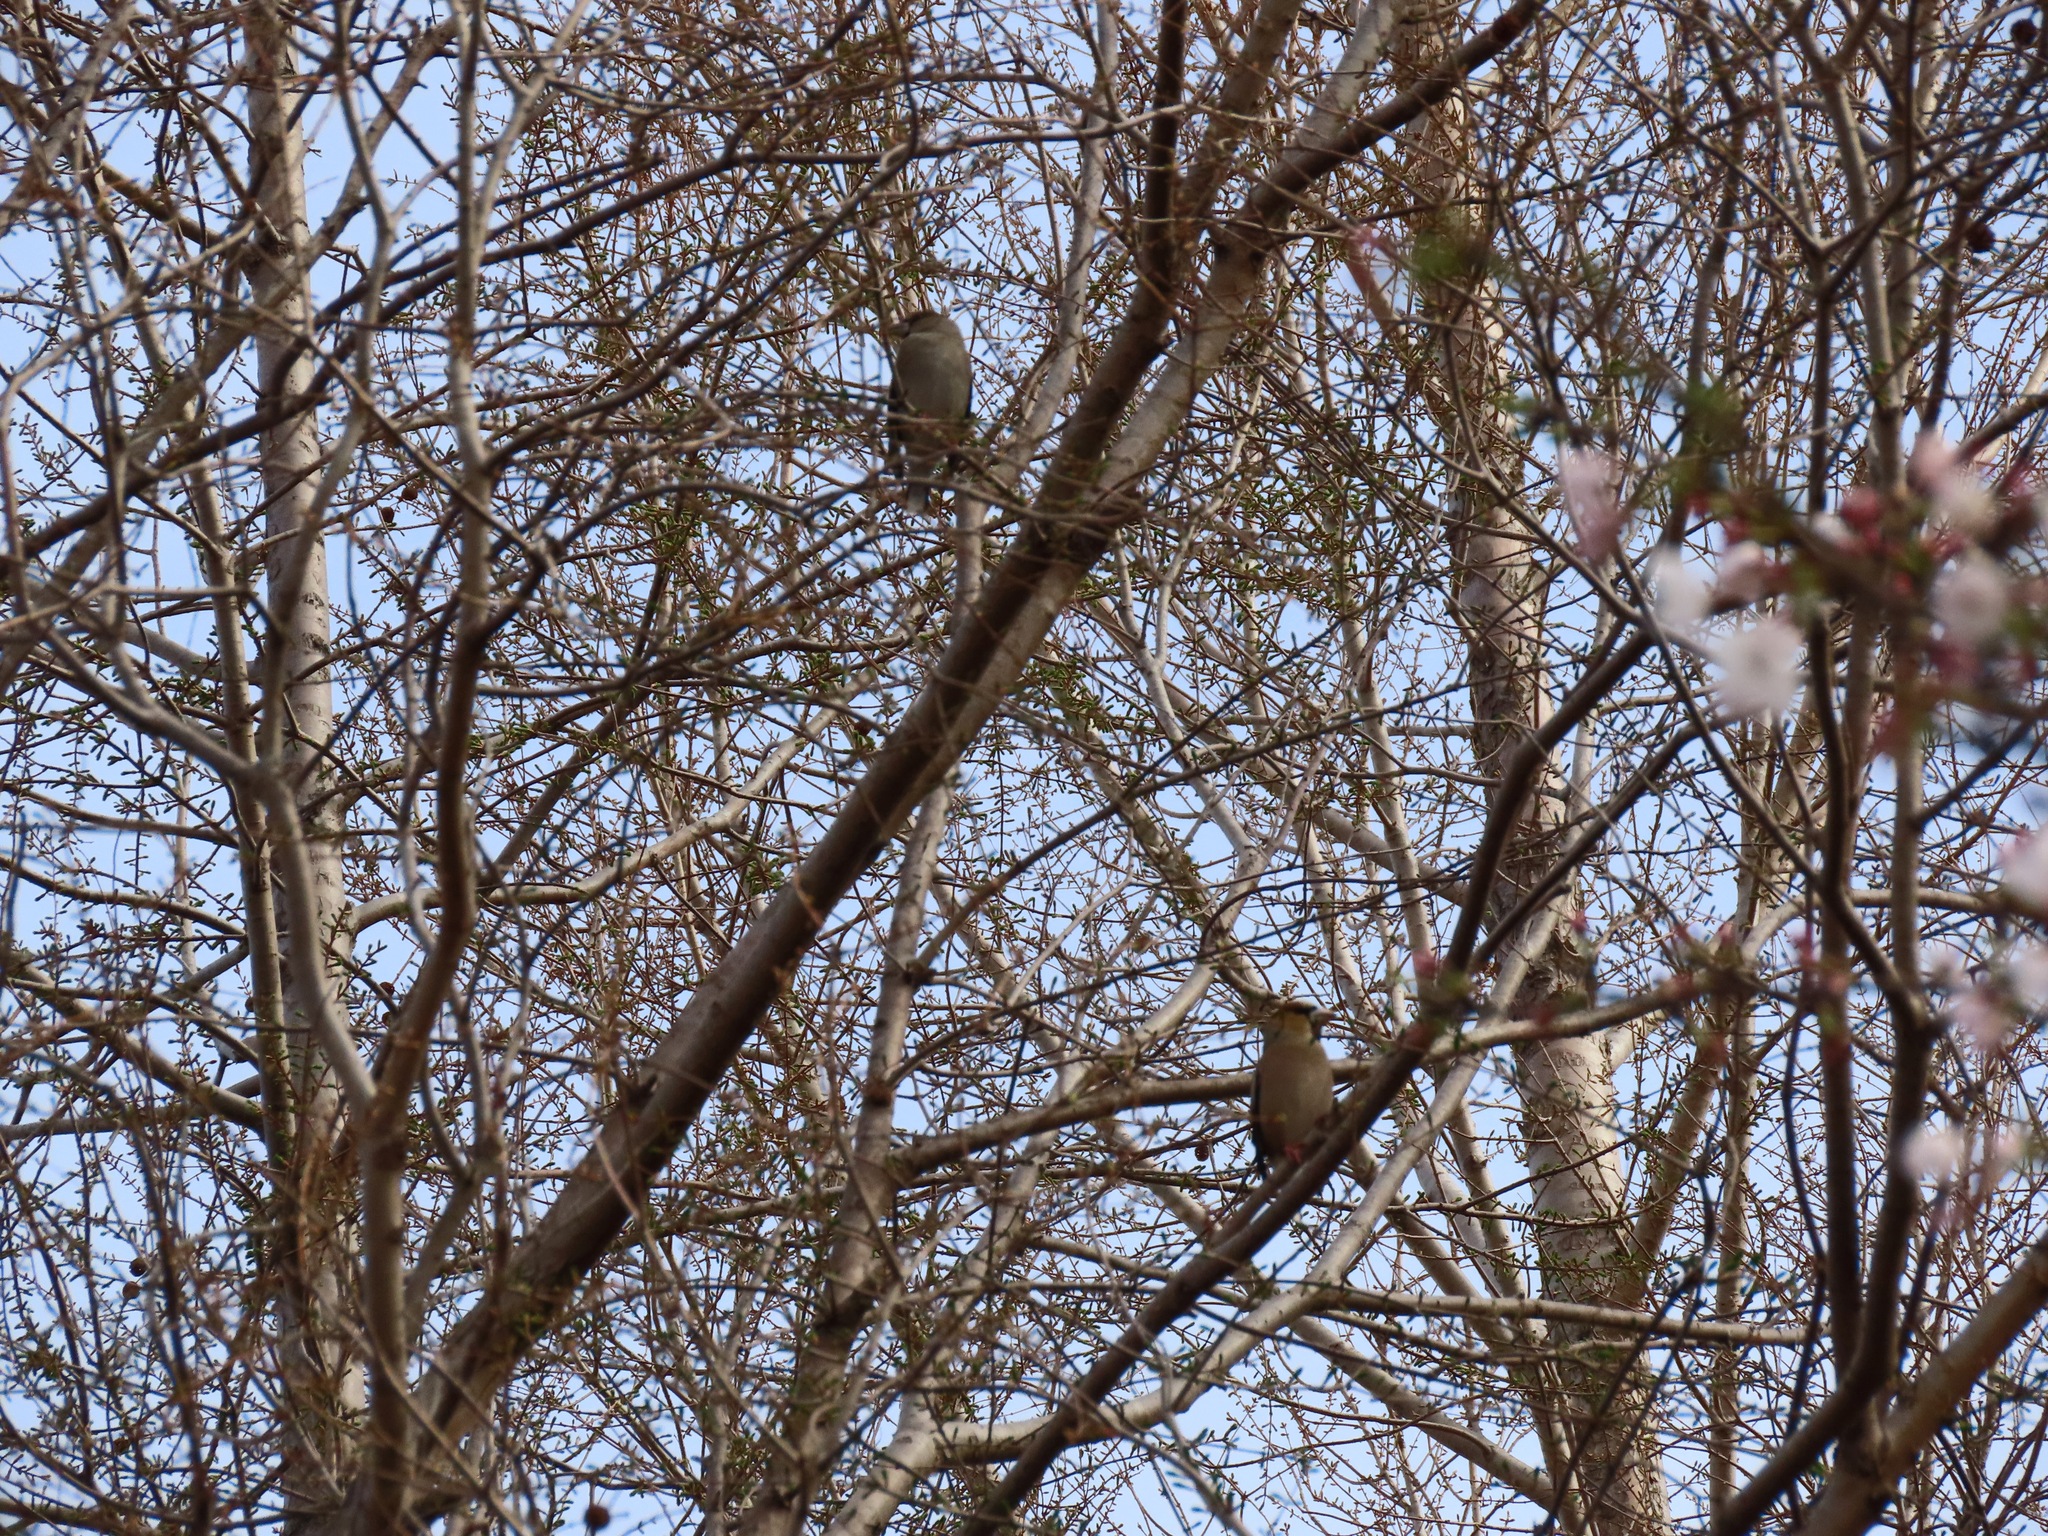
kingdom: Animalia
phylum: Chordata
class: Aves
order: Passeriformes
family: Fringillidae
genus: Coccothraustes
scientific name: Coccothraustes coccothraustes
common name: Hawfinch
